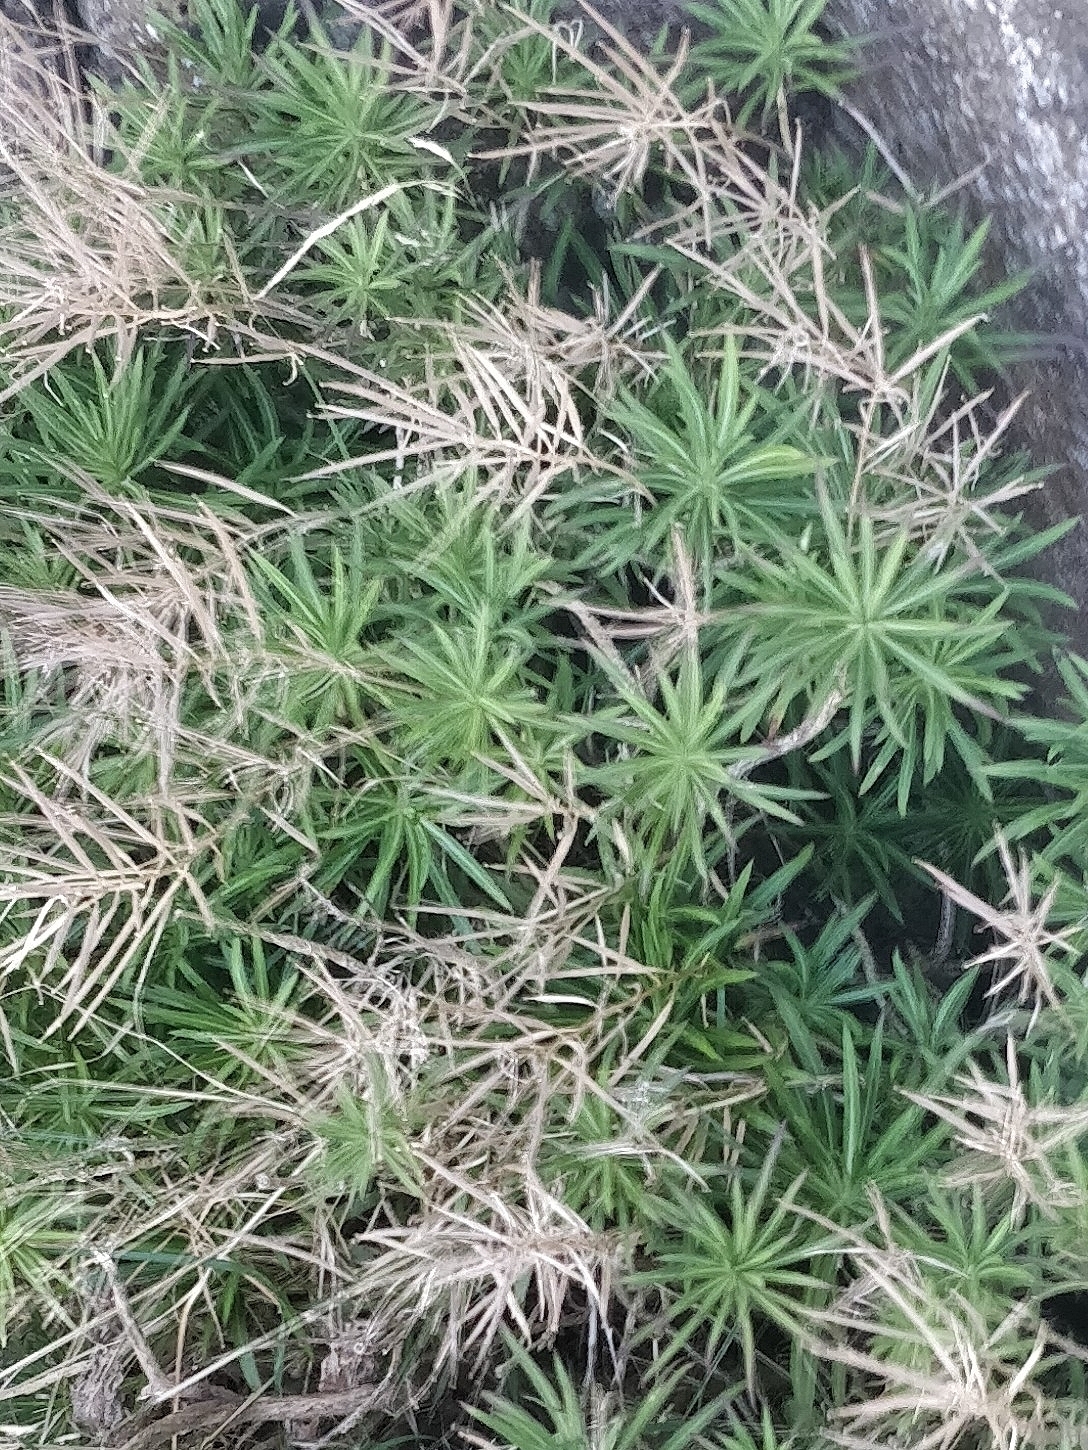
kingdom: Plantae
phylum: Tracheophyta
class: Magnoliopsida
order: Brassicales
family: Brassicaceae
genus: Erysimum
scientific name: Erysimum bicolor
